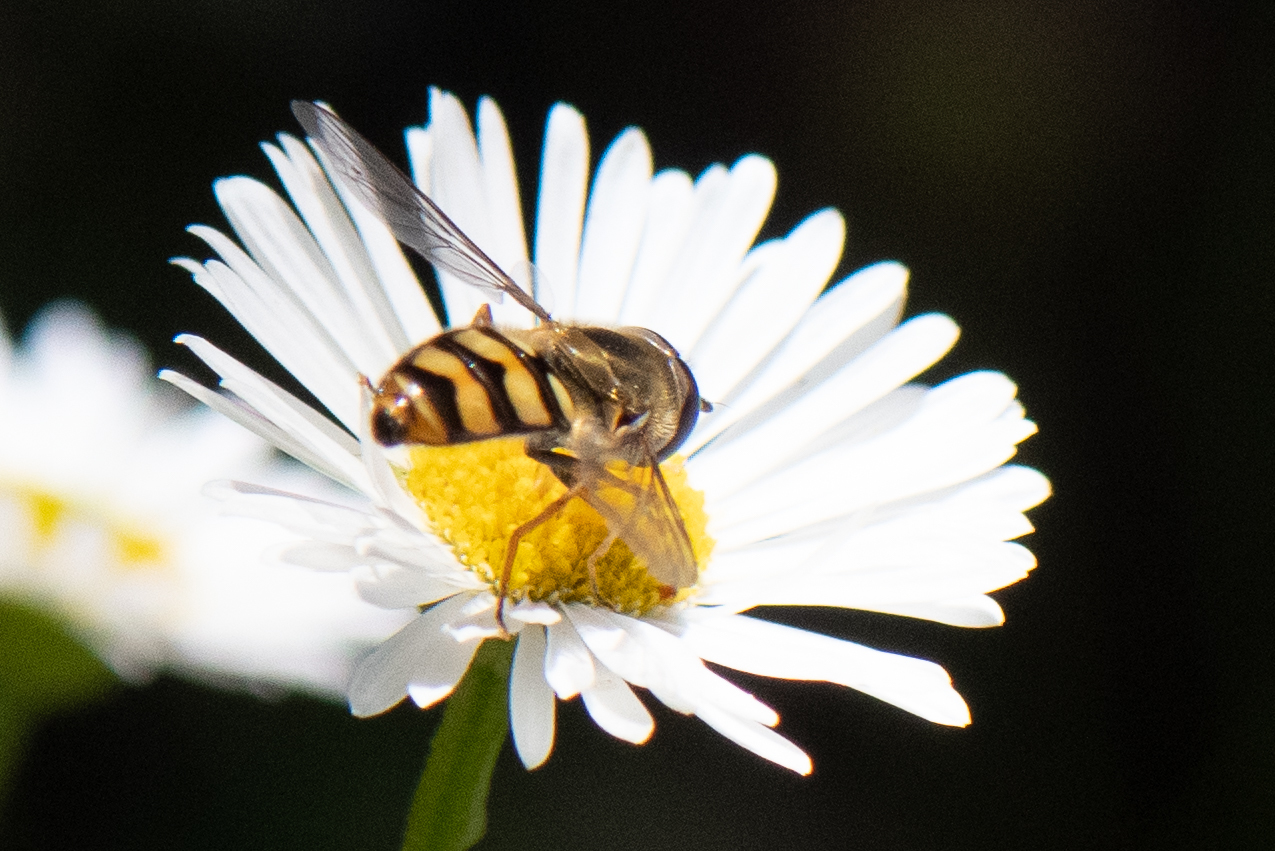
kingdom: Animalia
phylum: Arthropoda
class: Insecta
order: Diptera
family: Syrphidae
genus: Eupeodes
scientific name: Eupeodes fumipennis
